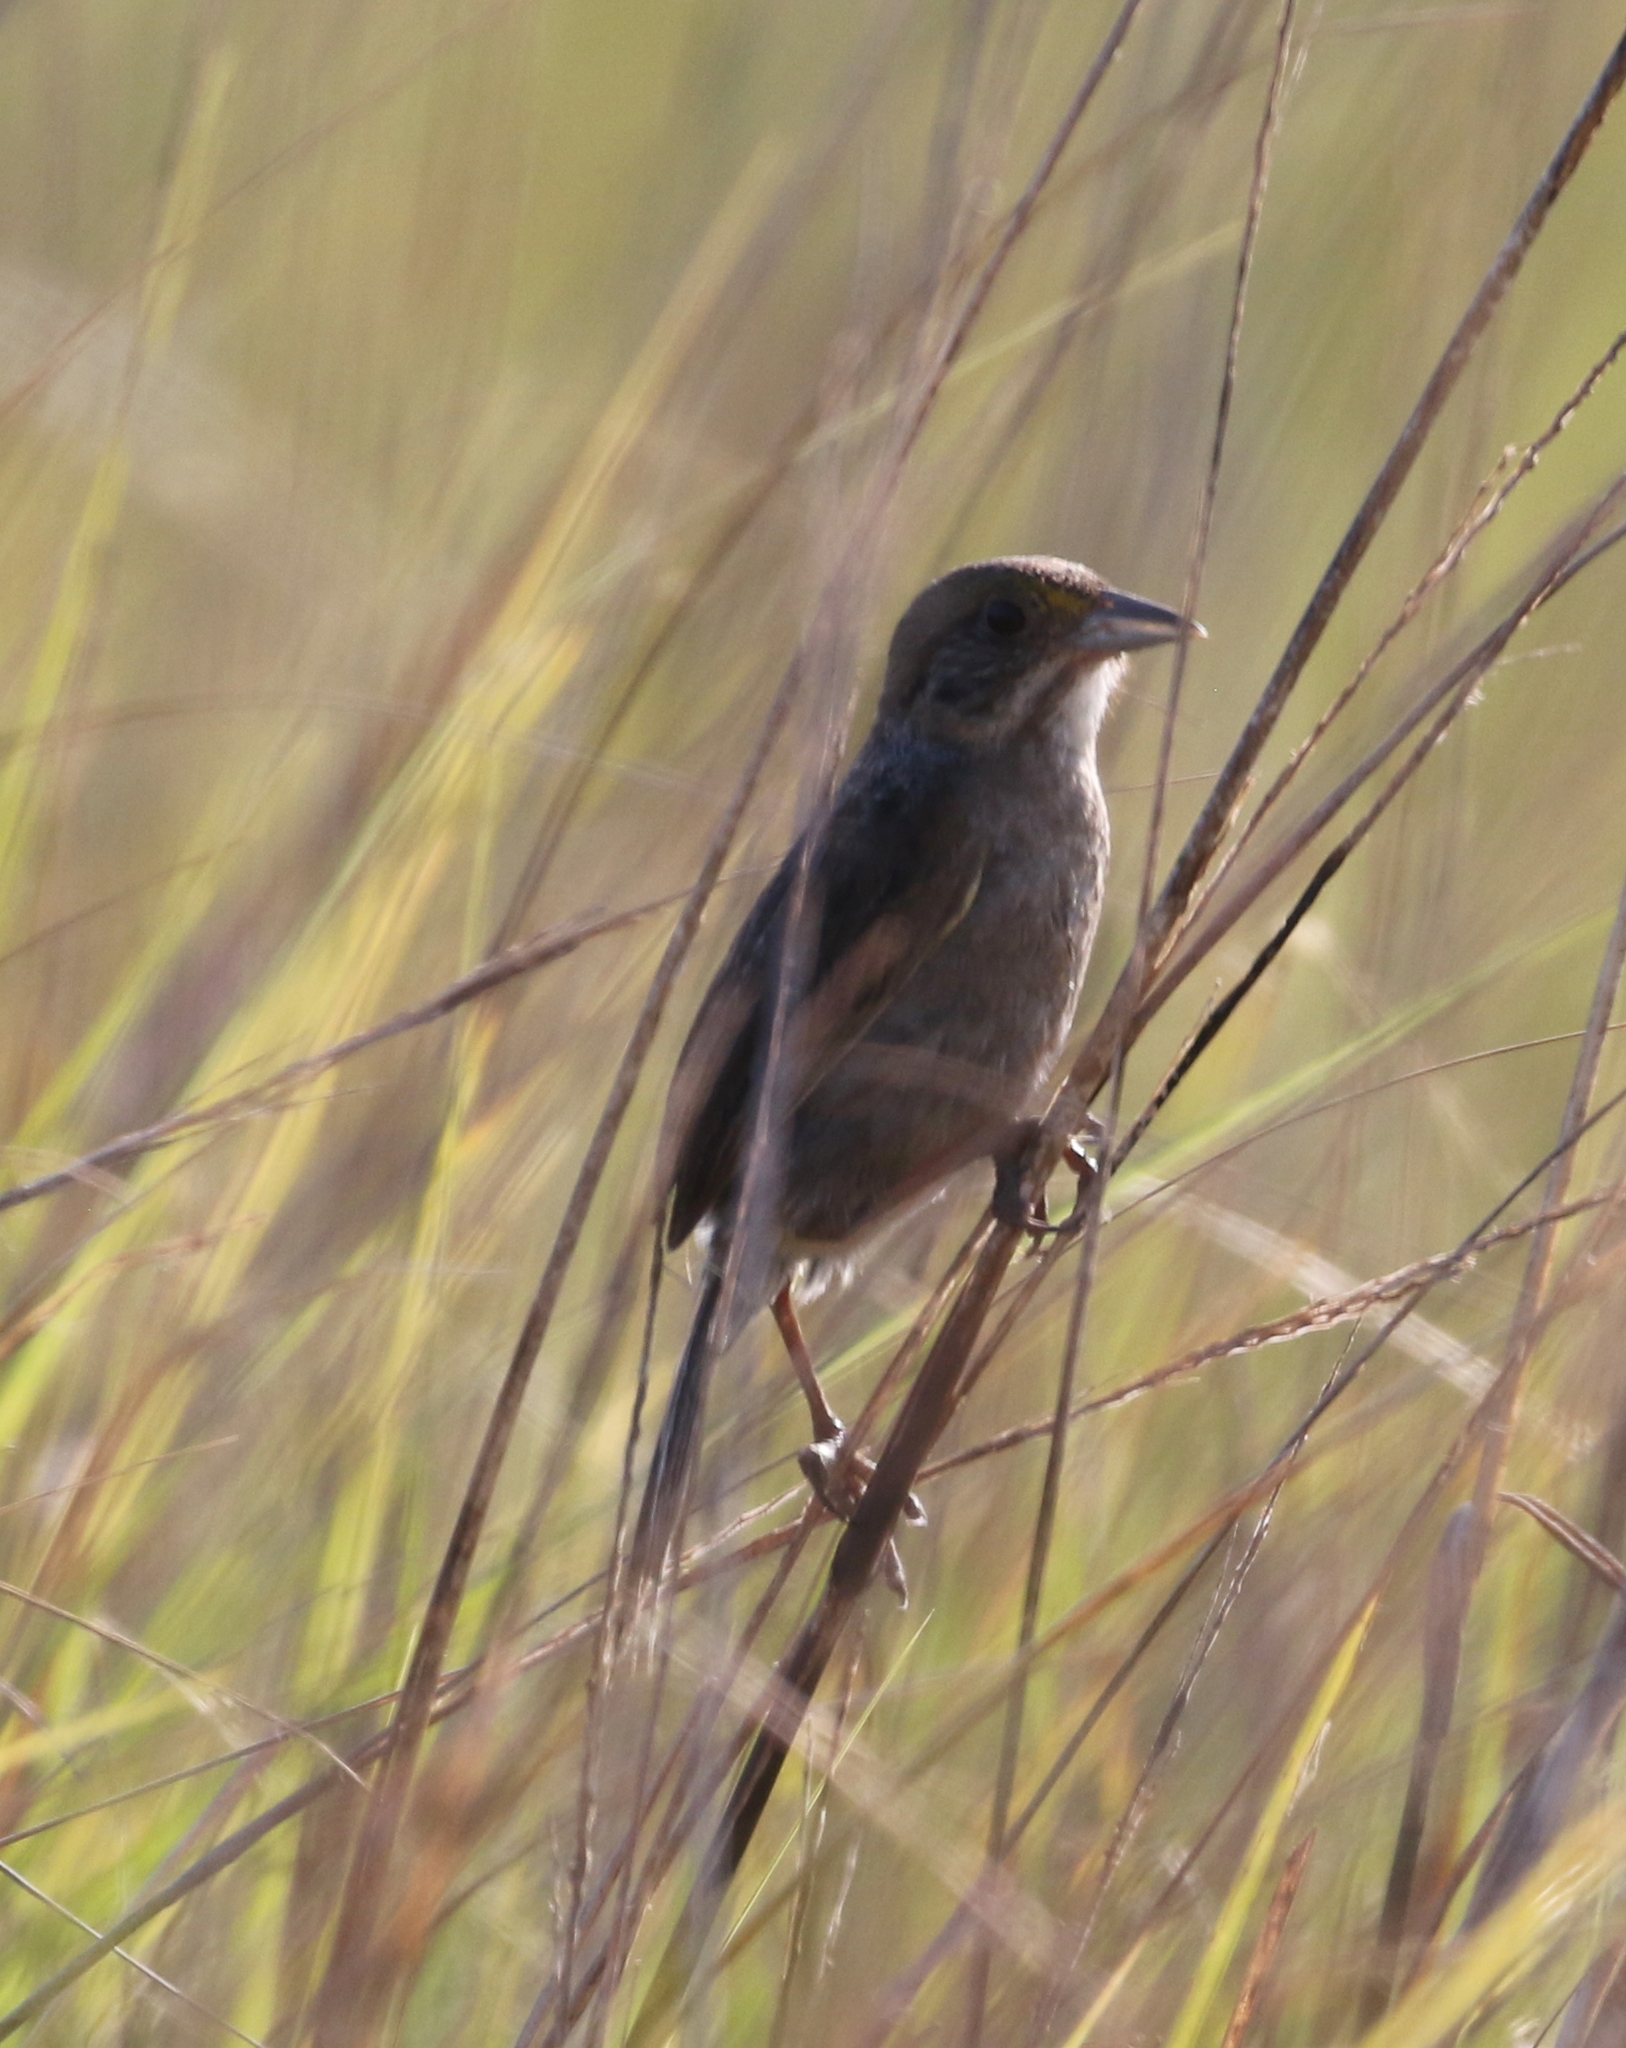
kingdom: Animalia
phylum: Chordata
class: Aves
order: Passeriformes
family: Passerellidae
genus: Ammospiza
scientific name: Ammospiza maritima
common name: Seaside sparrow
